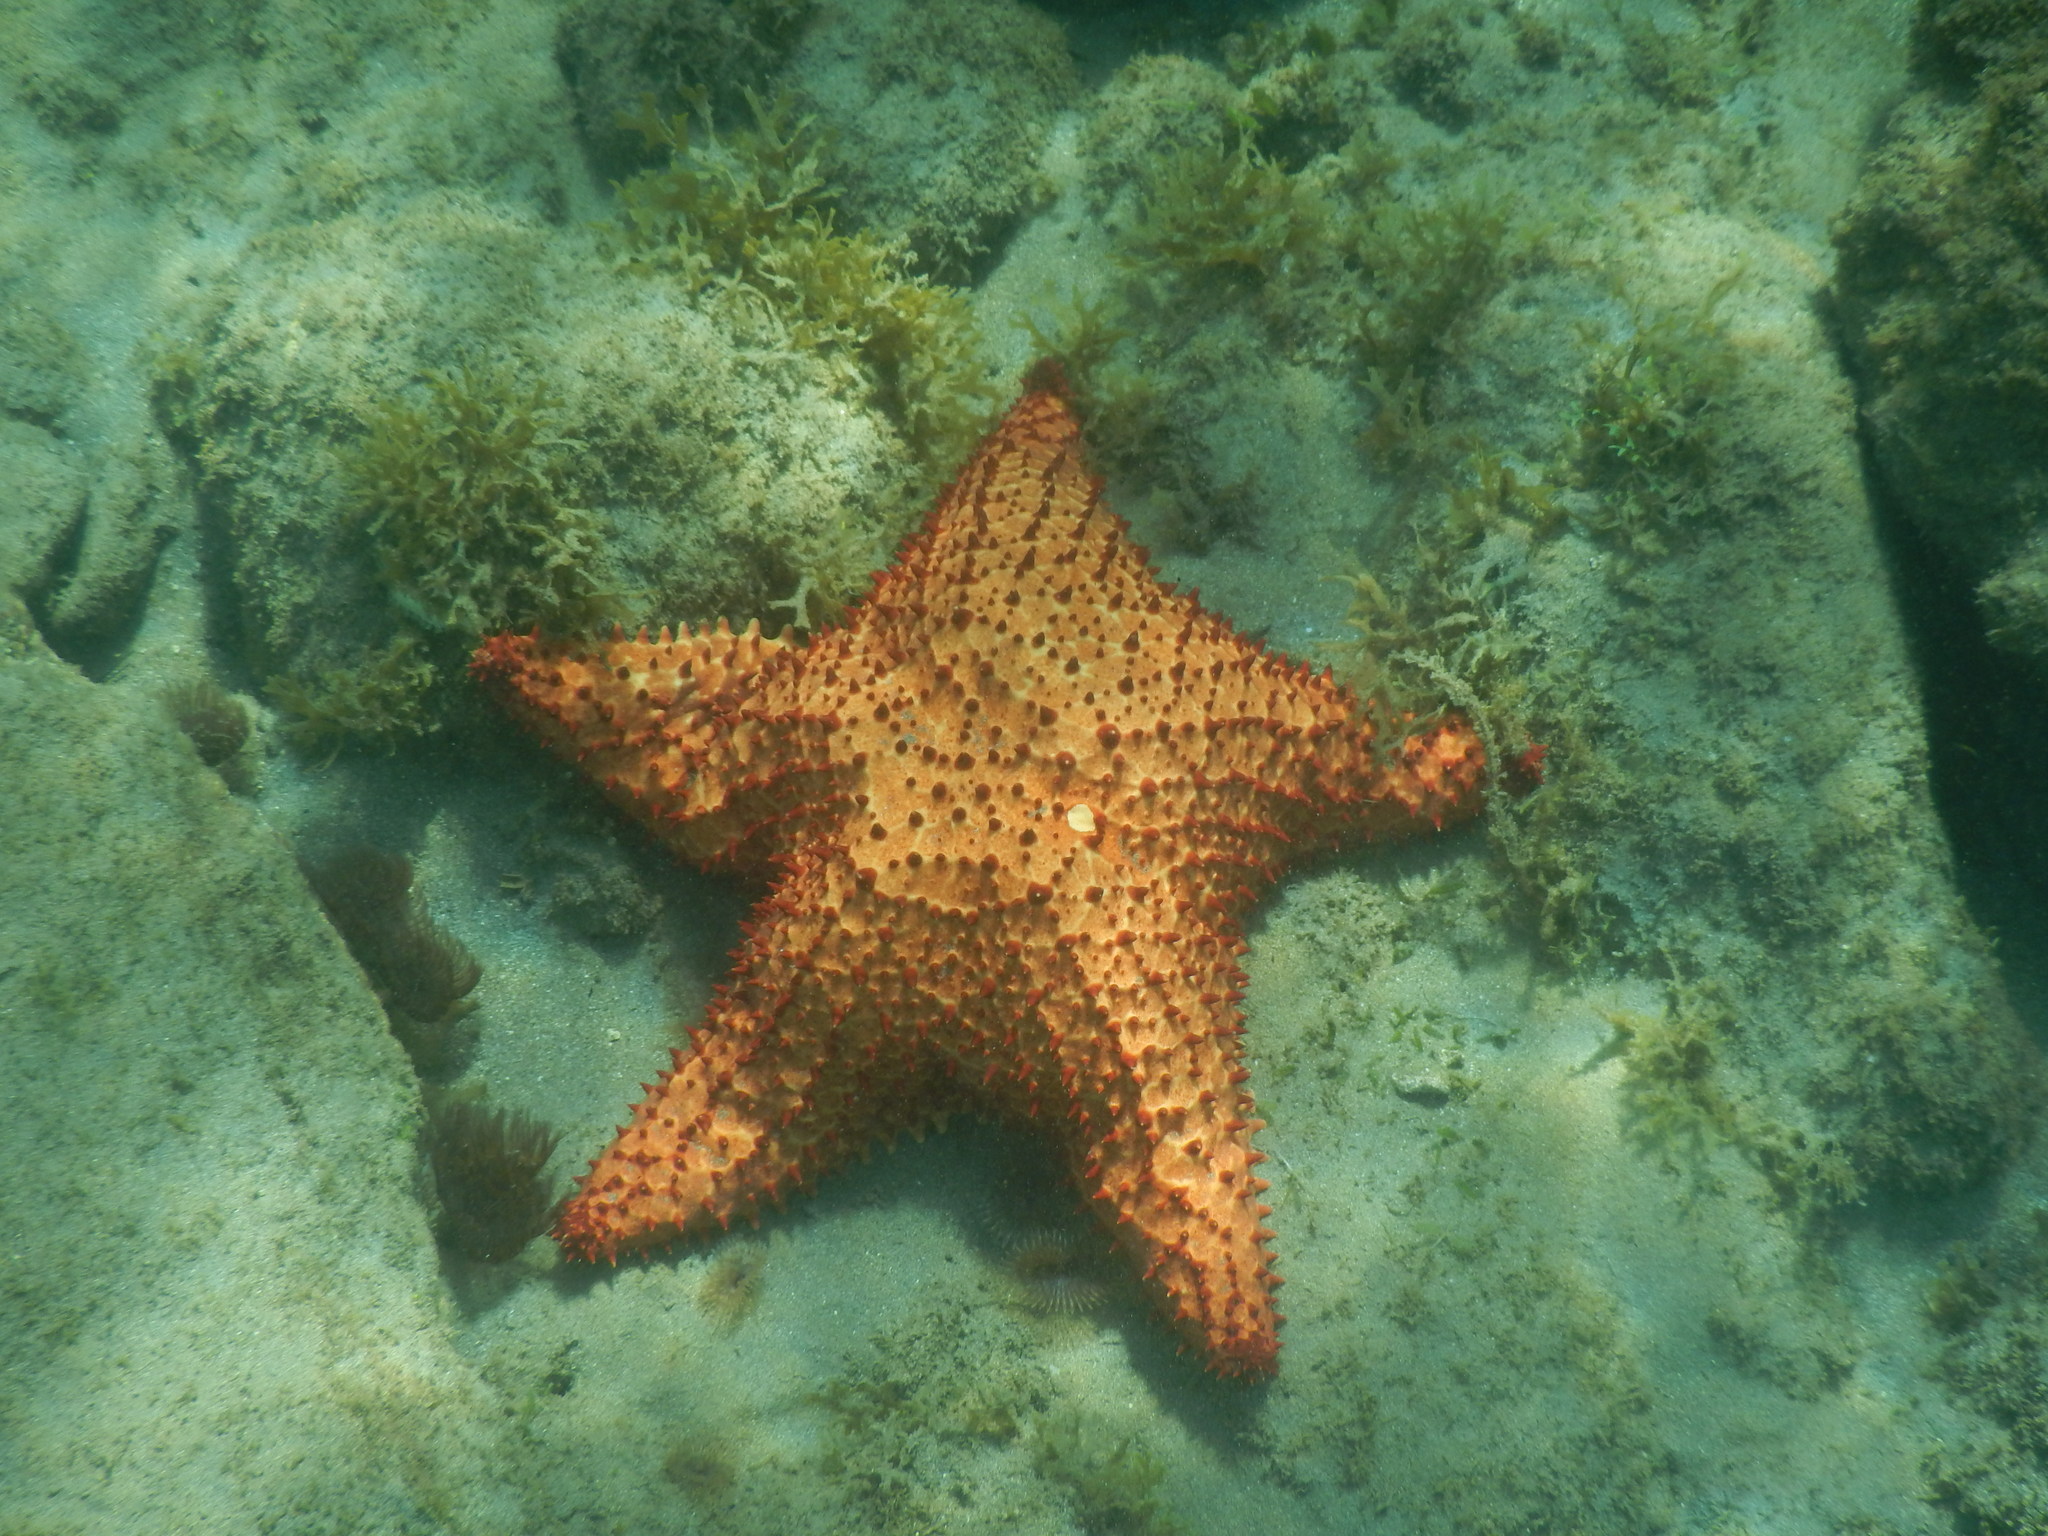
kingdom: Animalia
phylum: Echinodermata
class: Asteroidea
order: Valvatida
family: Oreasteridae
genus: Oreaster
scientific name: Oreaster reticulatus
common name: Cushion sea star
